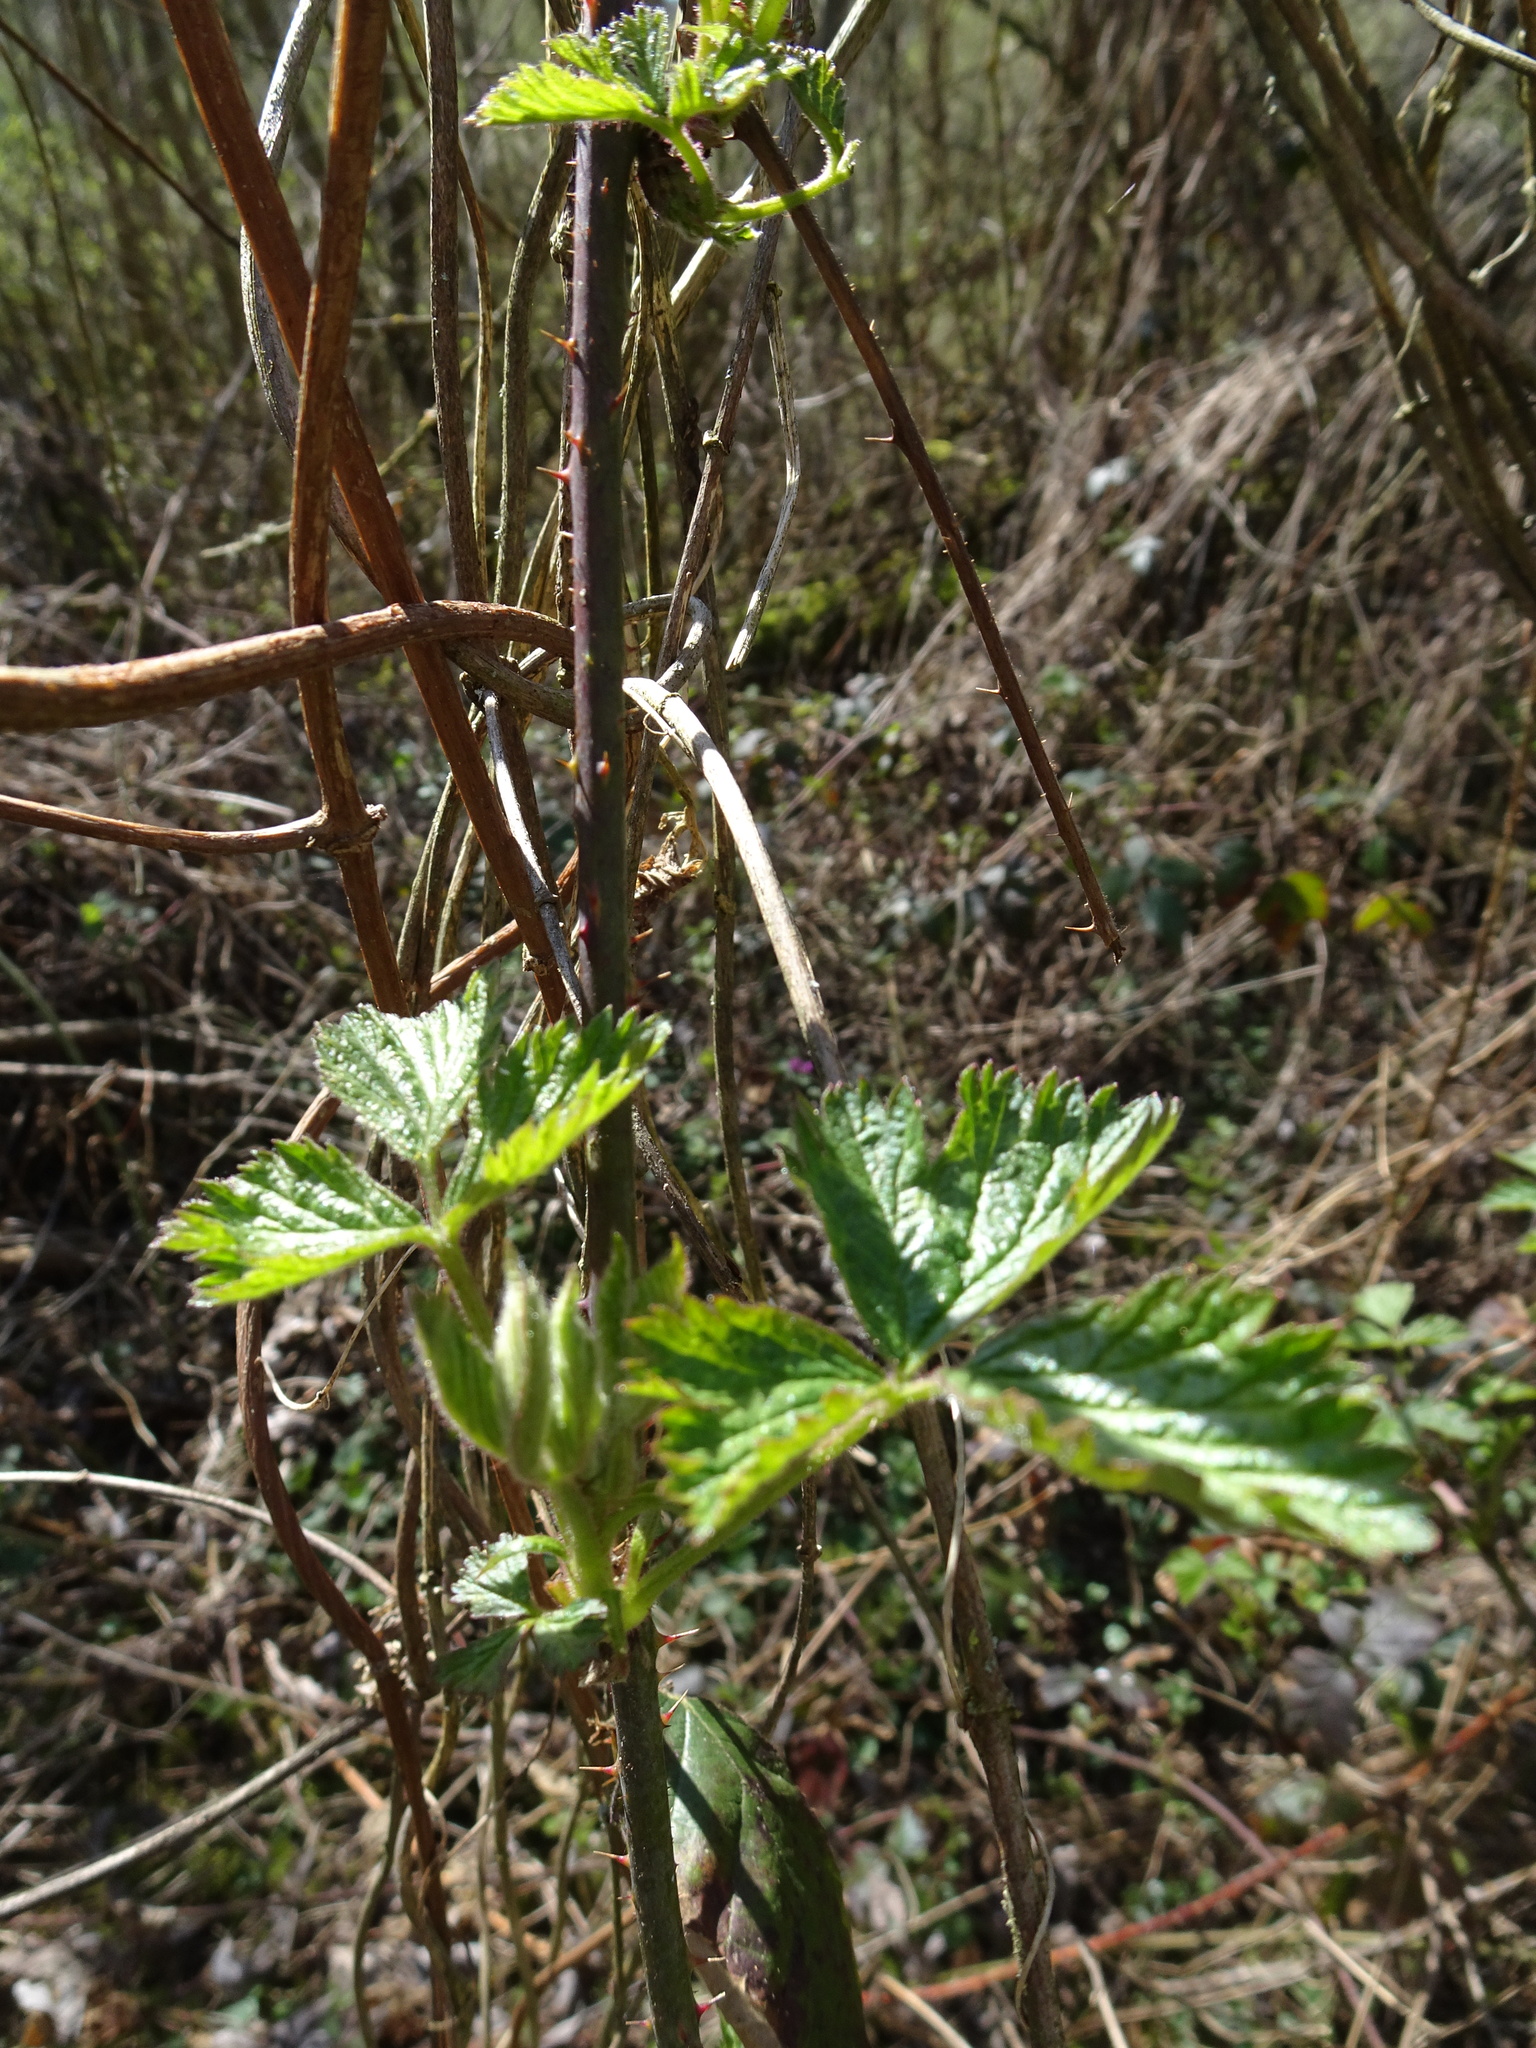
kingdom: Plantae
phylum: Tracheophyta
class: Magnoliopsida
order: Rosales
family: Cannabaceae
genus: Humulus
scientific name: Humulus lupulus
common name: Hop
